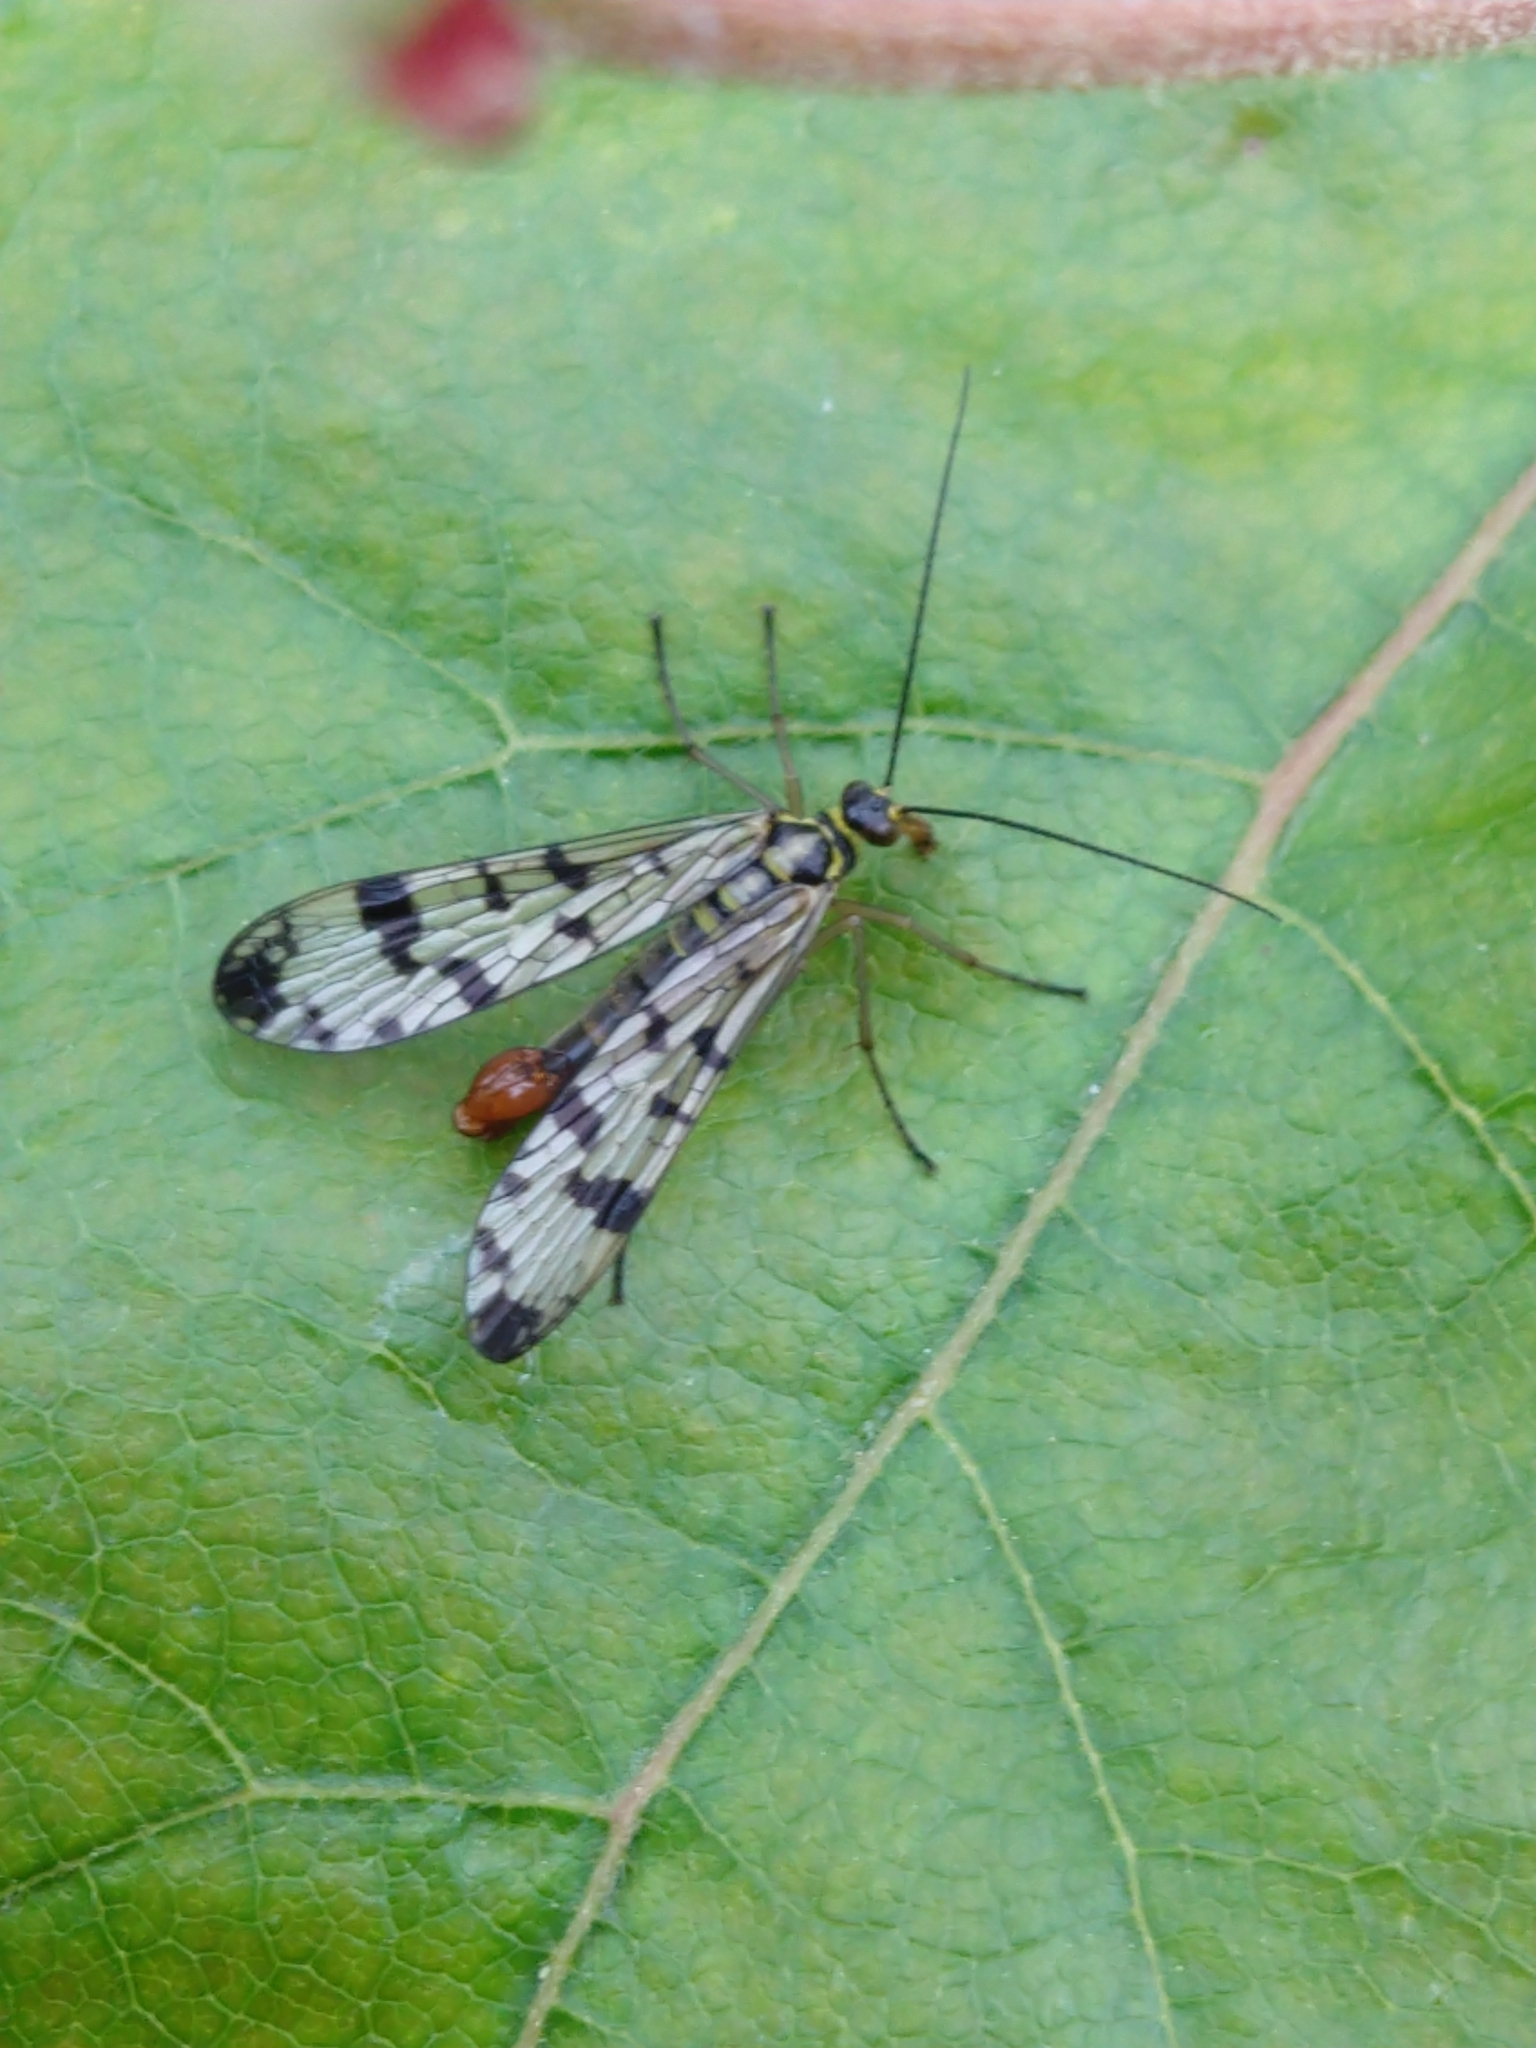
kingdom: Animalia
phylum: Arthropoda
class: Insecta
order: Mecoptera
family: Panorpidae
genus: Panorpa
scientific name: Panorpa communis
